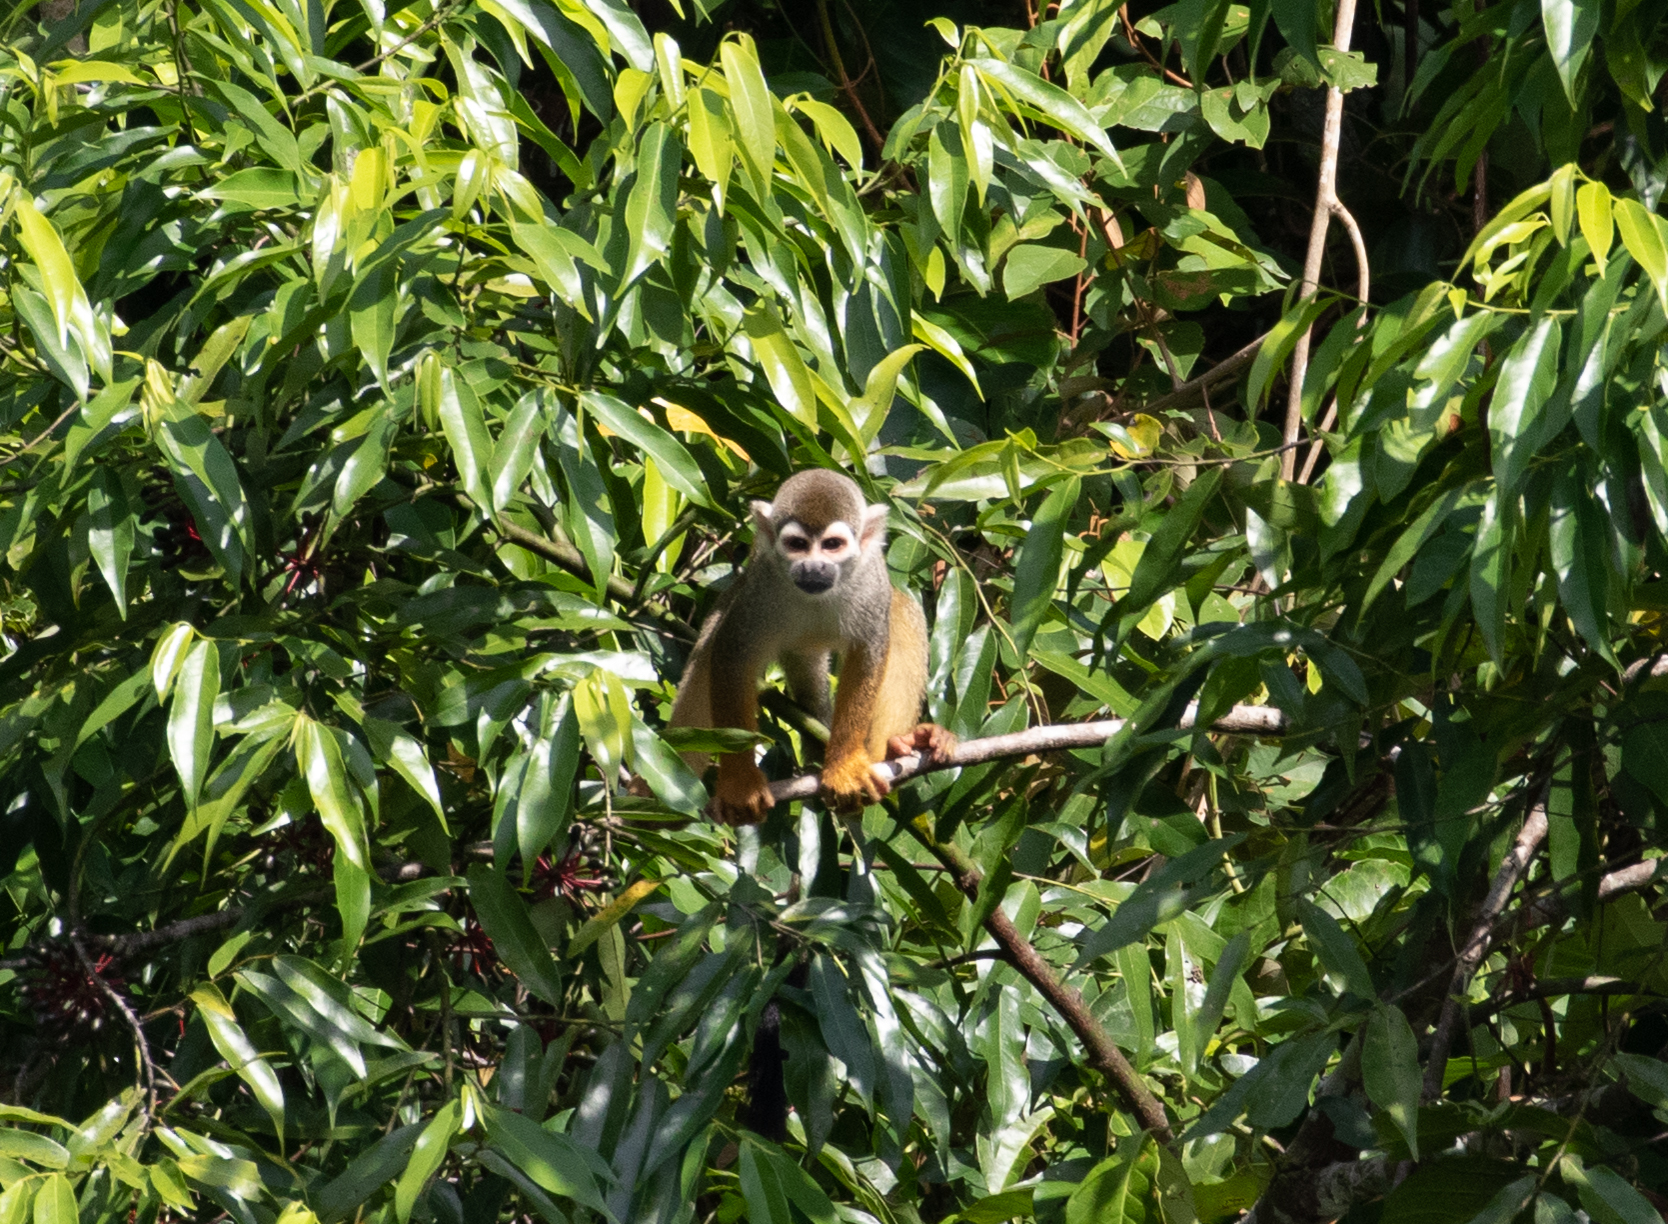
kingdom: Animalia
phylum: Chordata
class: Mammalia
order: Primates
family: Cebidae
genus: Saimiri
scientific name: Saimiri cassiquiarensis
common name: Humboldt’s squirrel monkey
